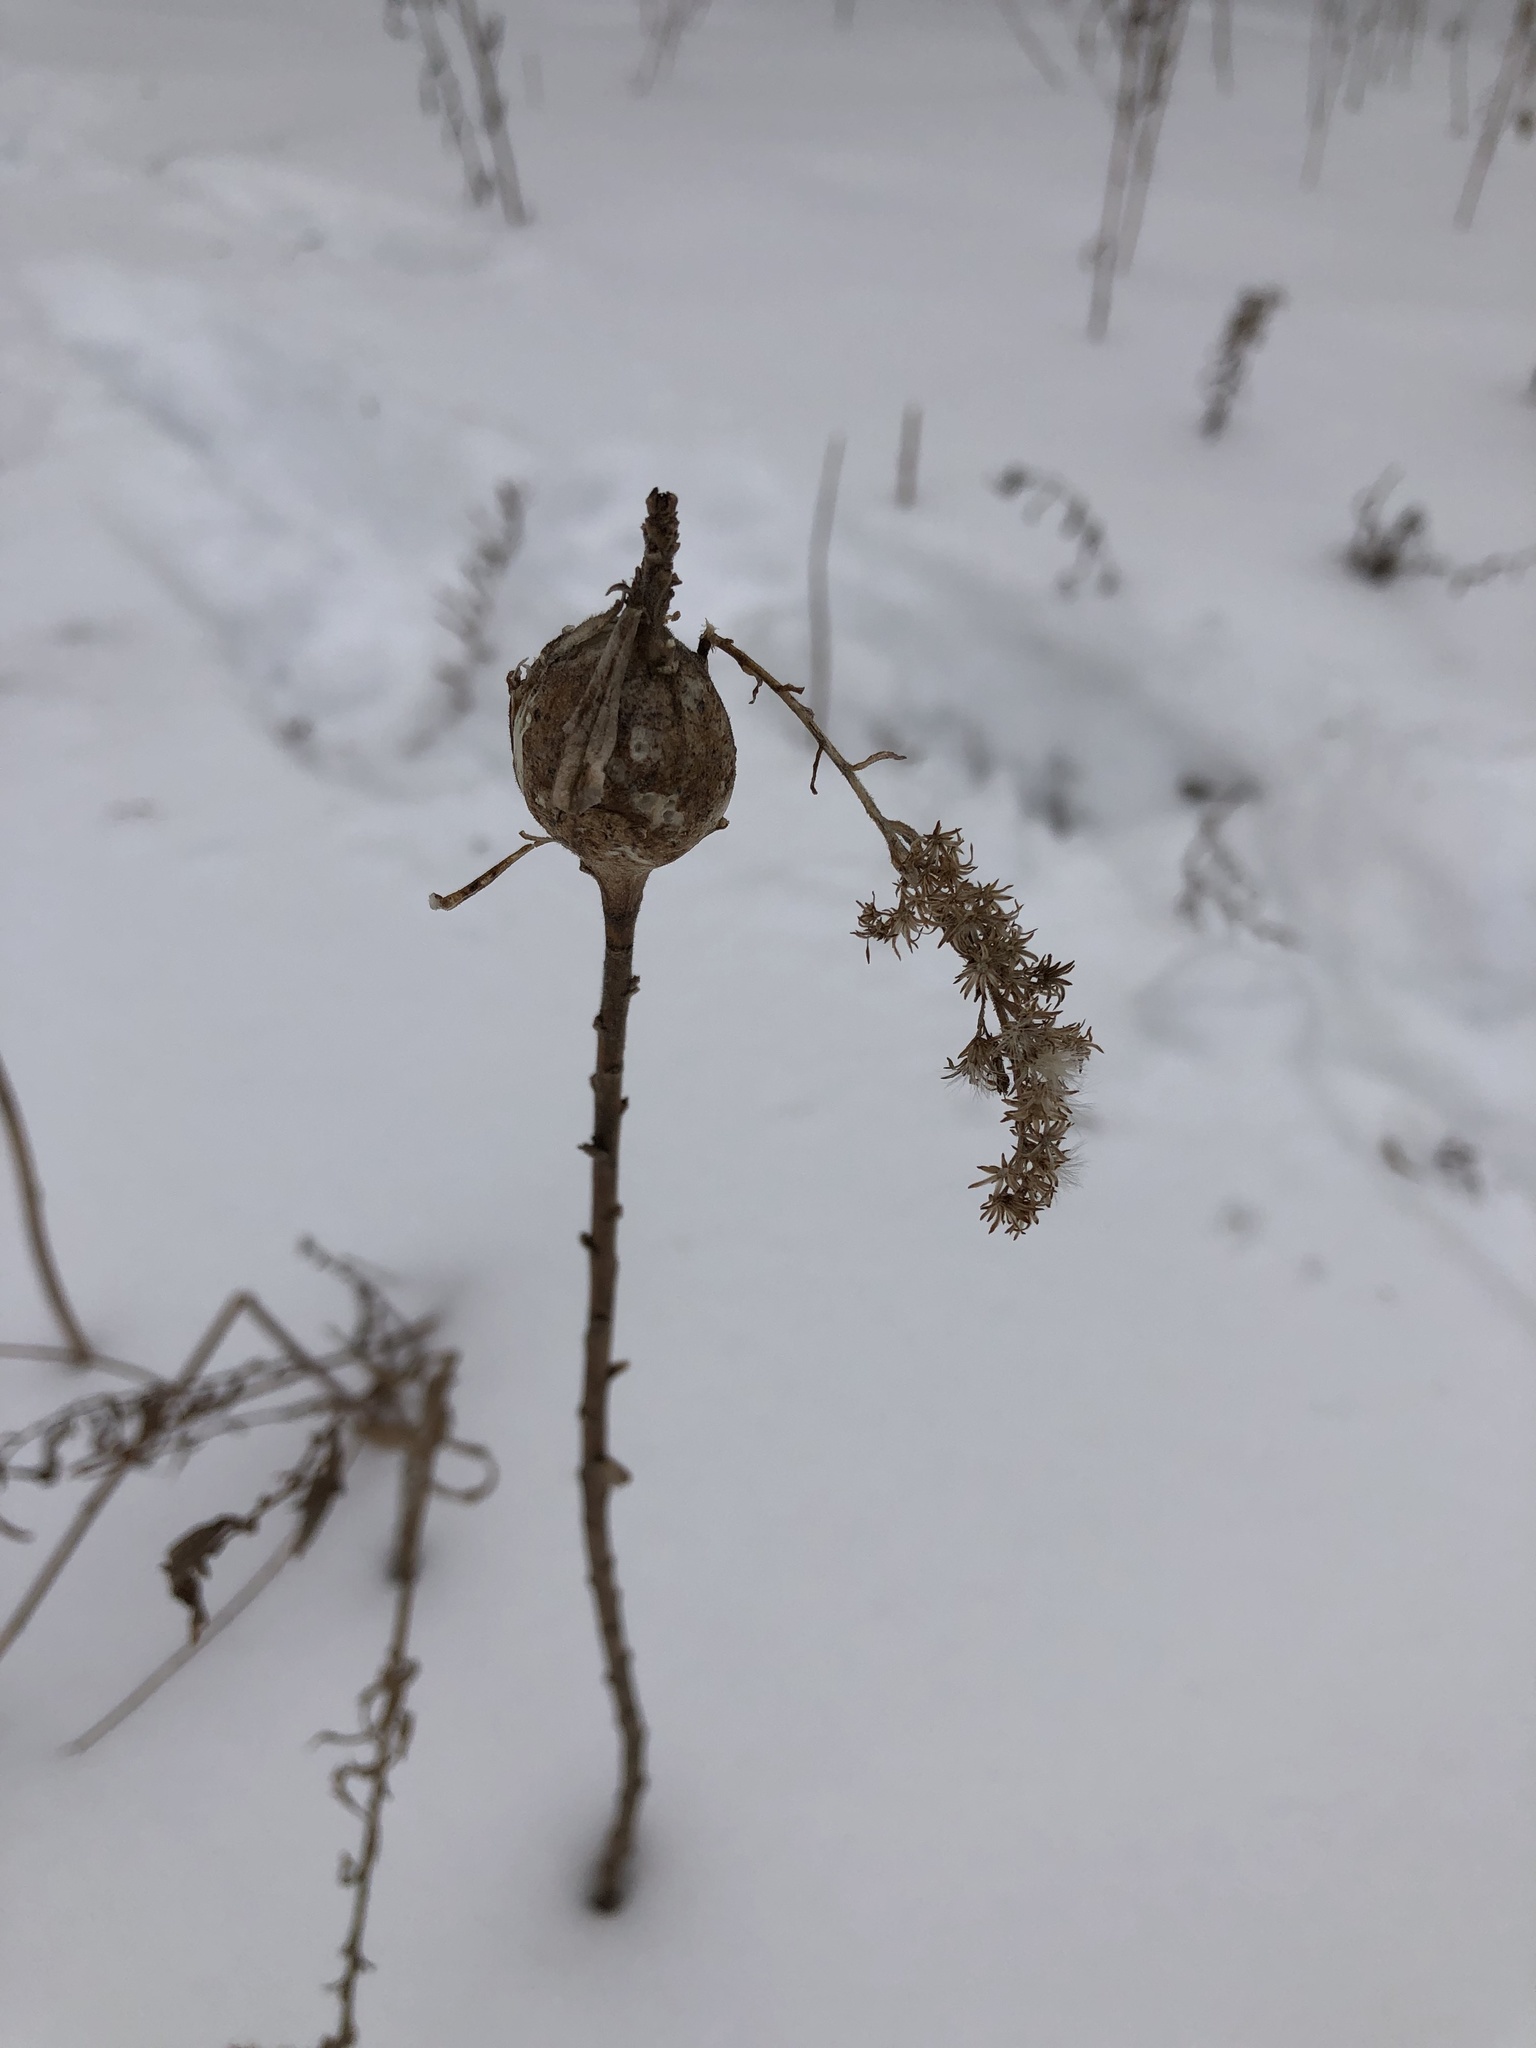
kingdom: Animalia
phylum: Arthropoda
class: Insecta
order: Diptera
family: Tephritidae
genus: Eurosta
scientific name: Eurosta solidaginis
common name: Goldenrod gall fly
